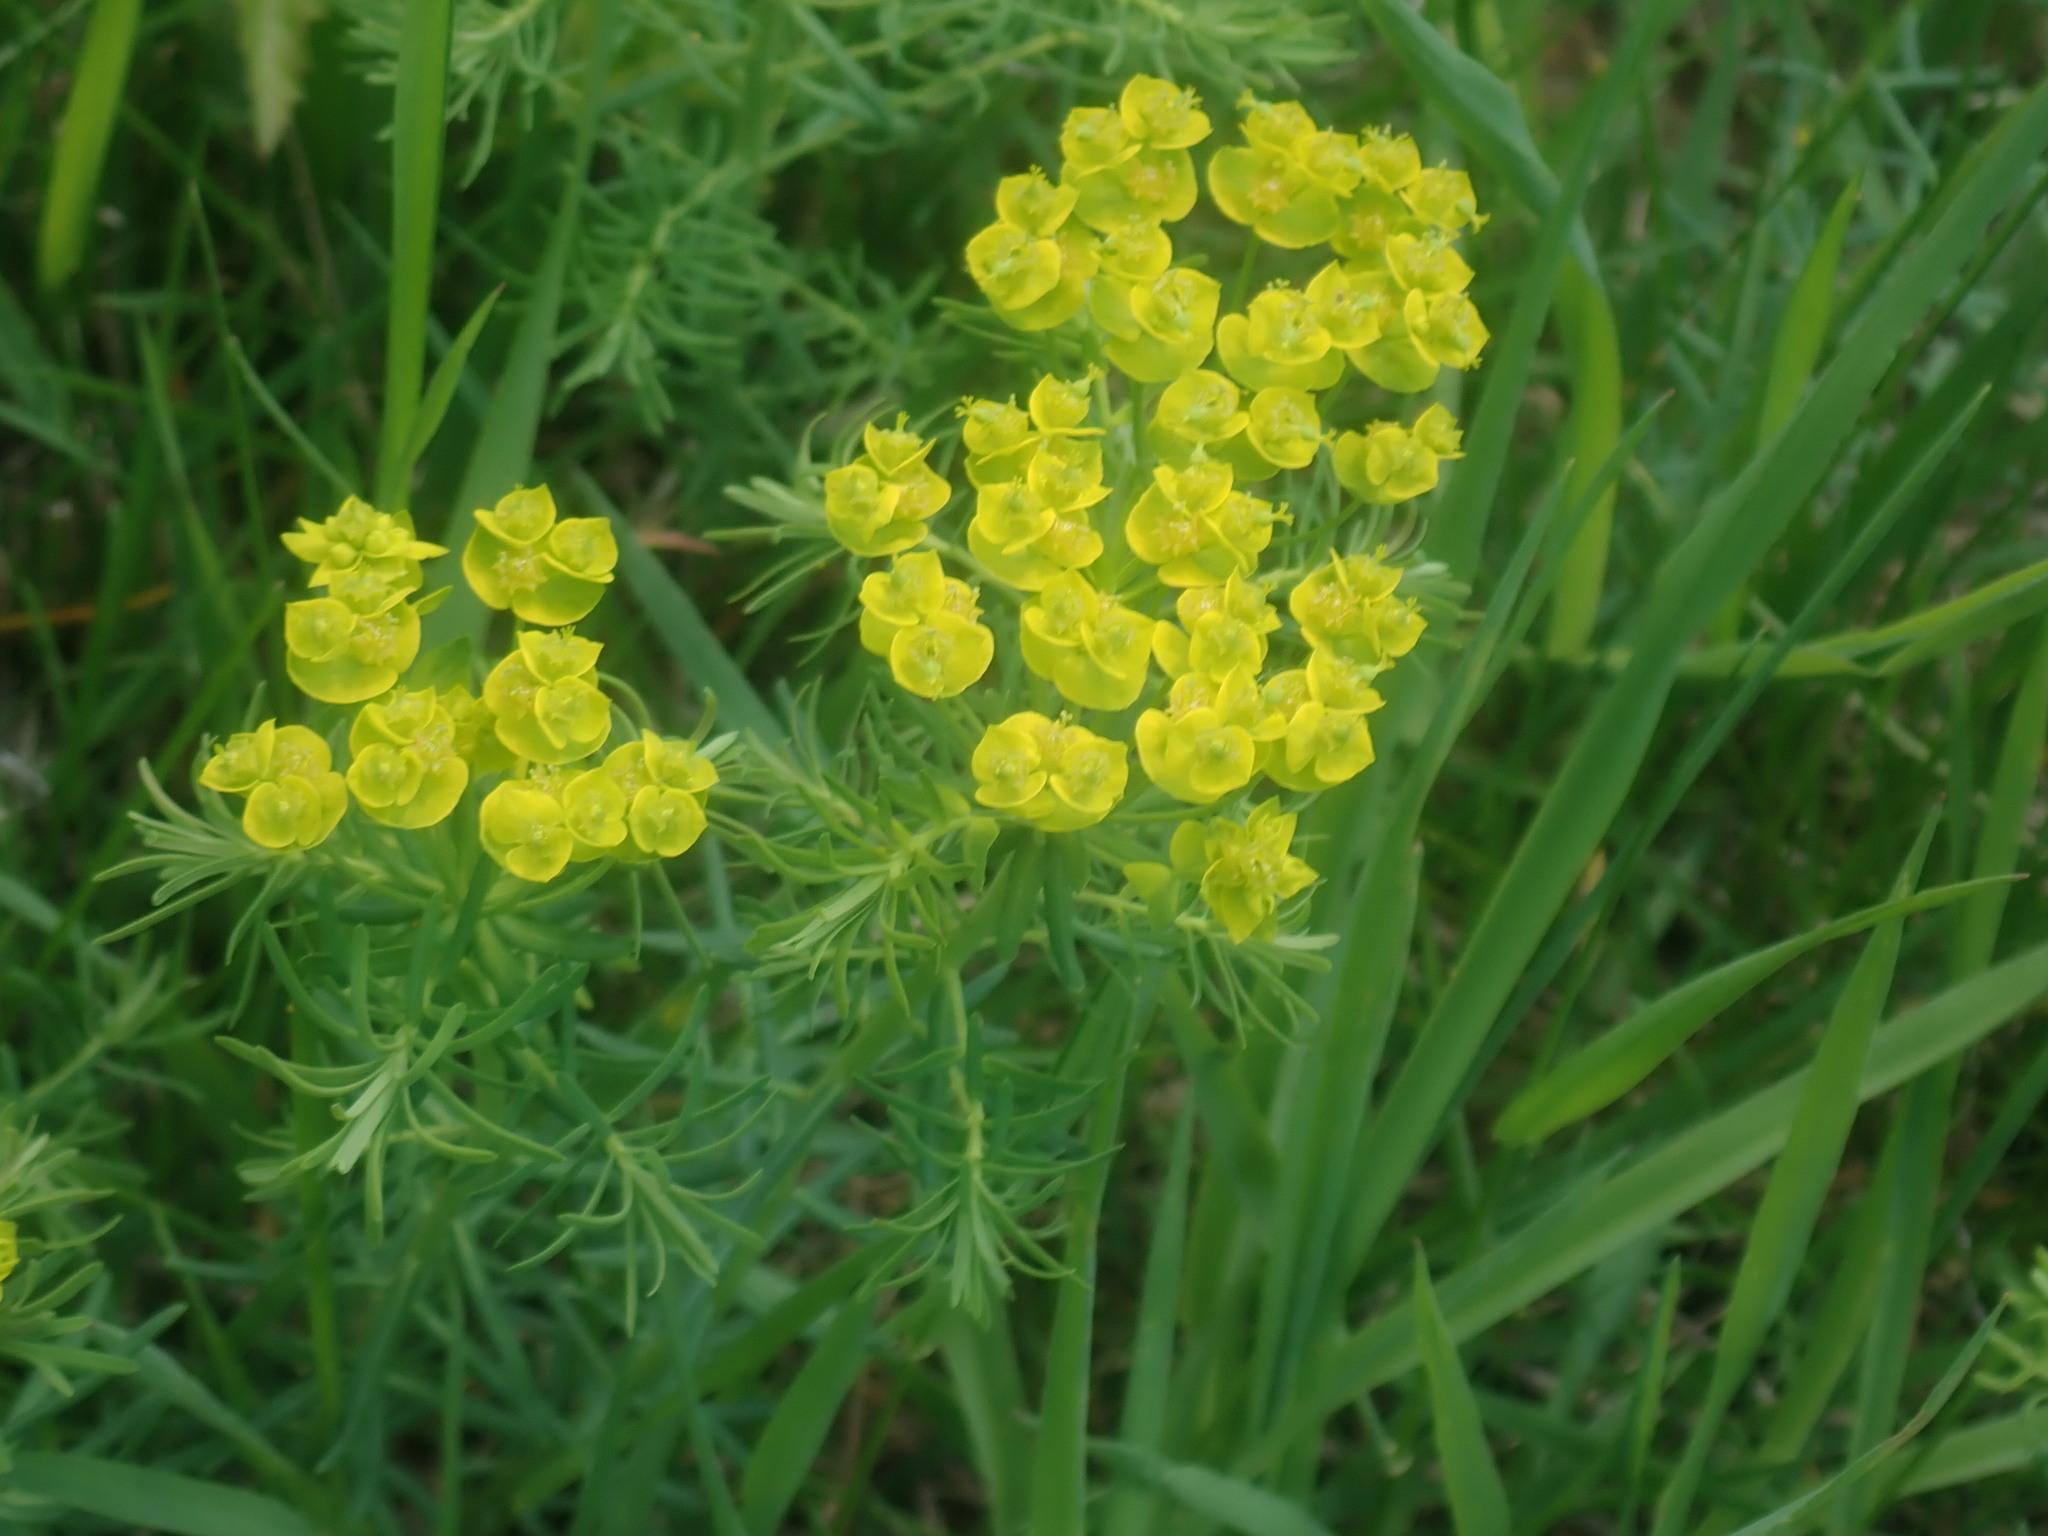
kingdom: Plantae
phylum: Tracheophyta
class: Magnoliopsida
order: Malpighiales
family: Euphorbiaceae
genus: Euphorbia
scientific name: Euphorbia cyparissias
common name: Cypress spurge
